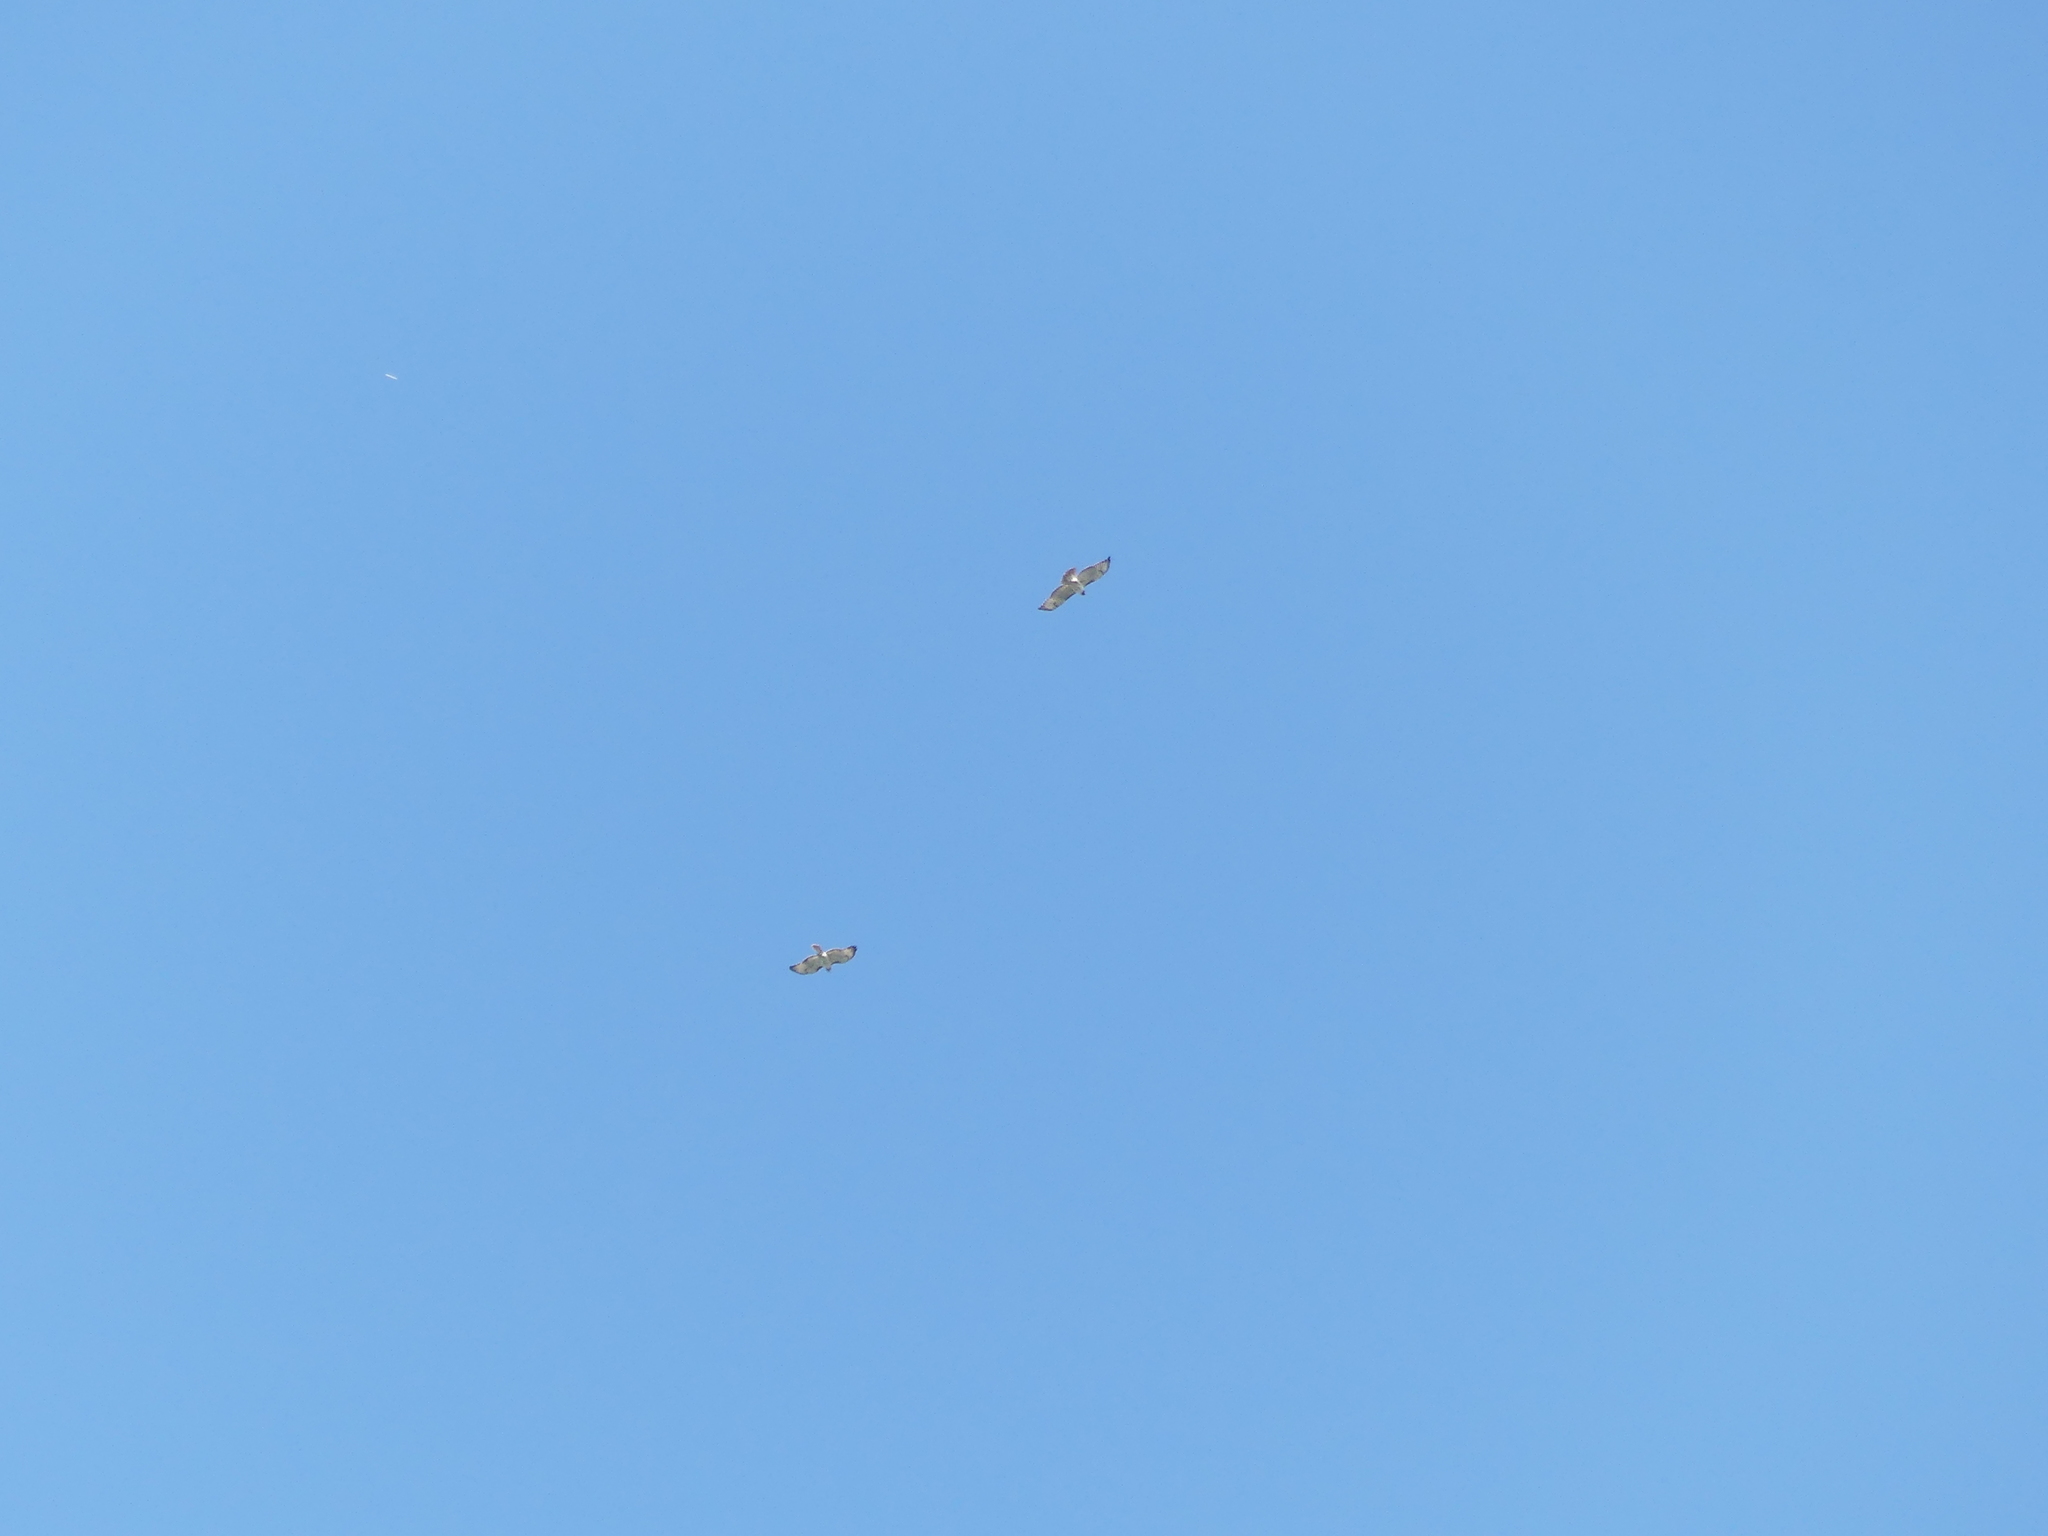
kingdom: Animalia
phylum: Chordata
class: Aves
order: Accipitriformes
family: Accipitridae
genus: Buteo
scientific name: Buteo jamaicensis
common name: Red-tailed hawk
